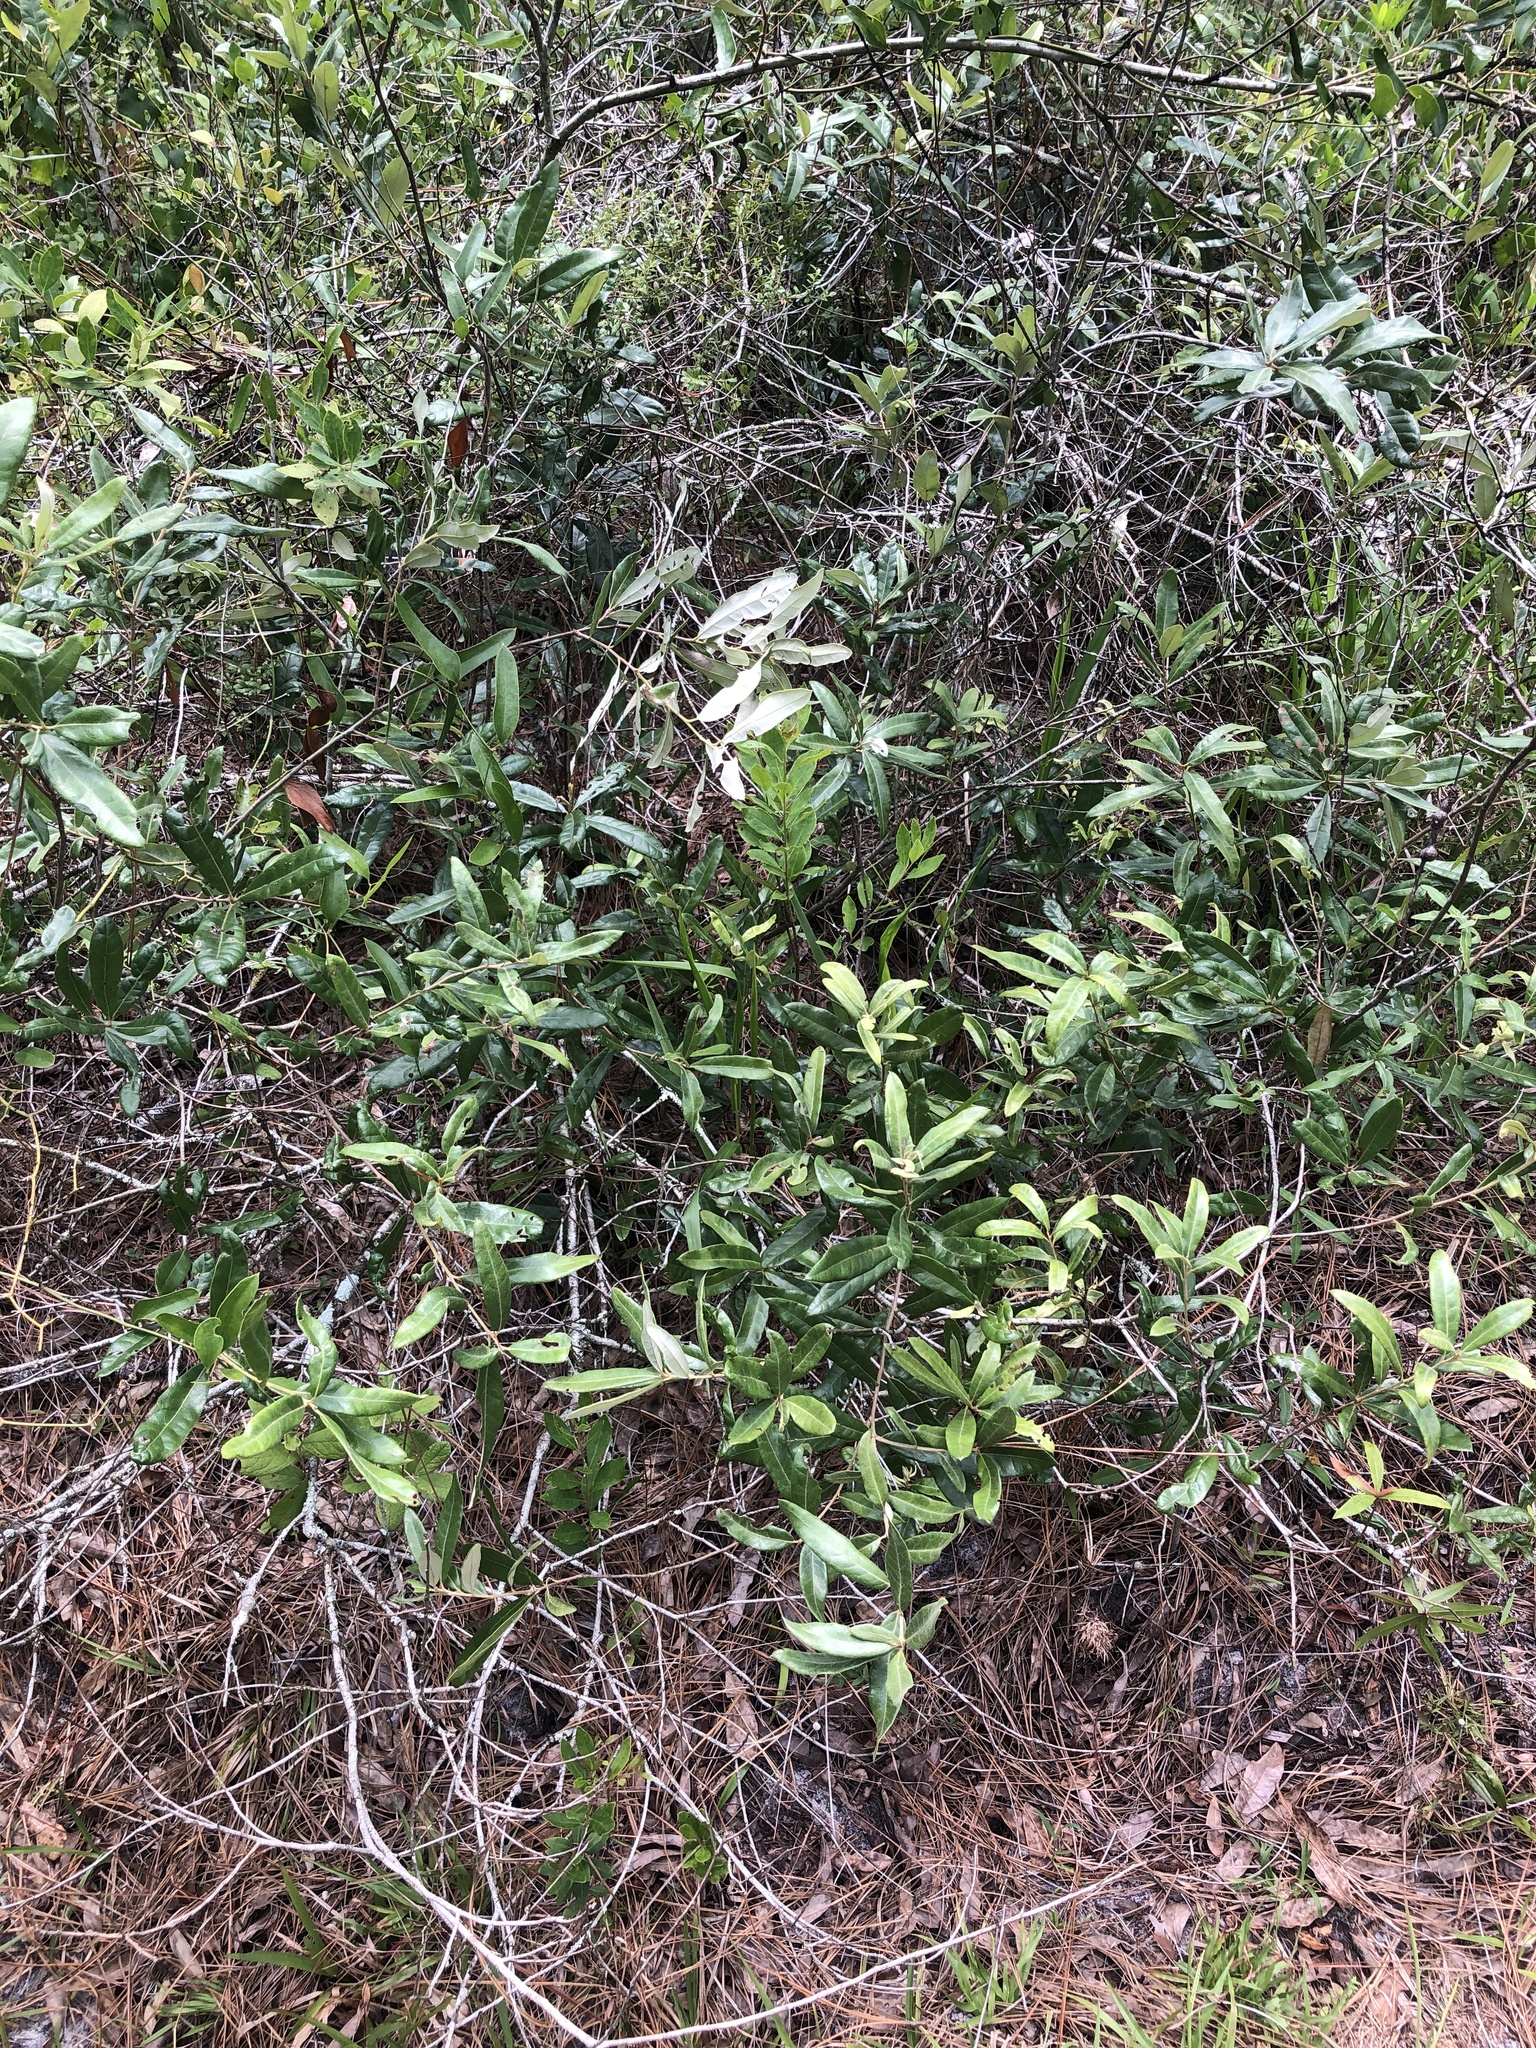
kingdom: Plantae
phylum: Tracheophyta
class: Magnoliopsida
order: Fagales
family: Fagaceae
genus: Quercus
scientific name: Quercus pumila
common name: Runner oak
